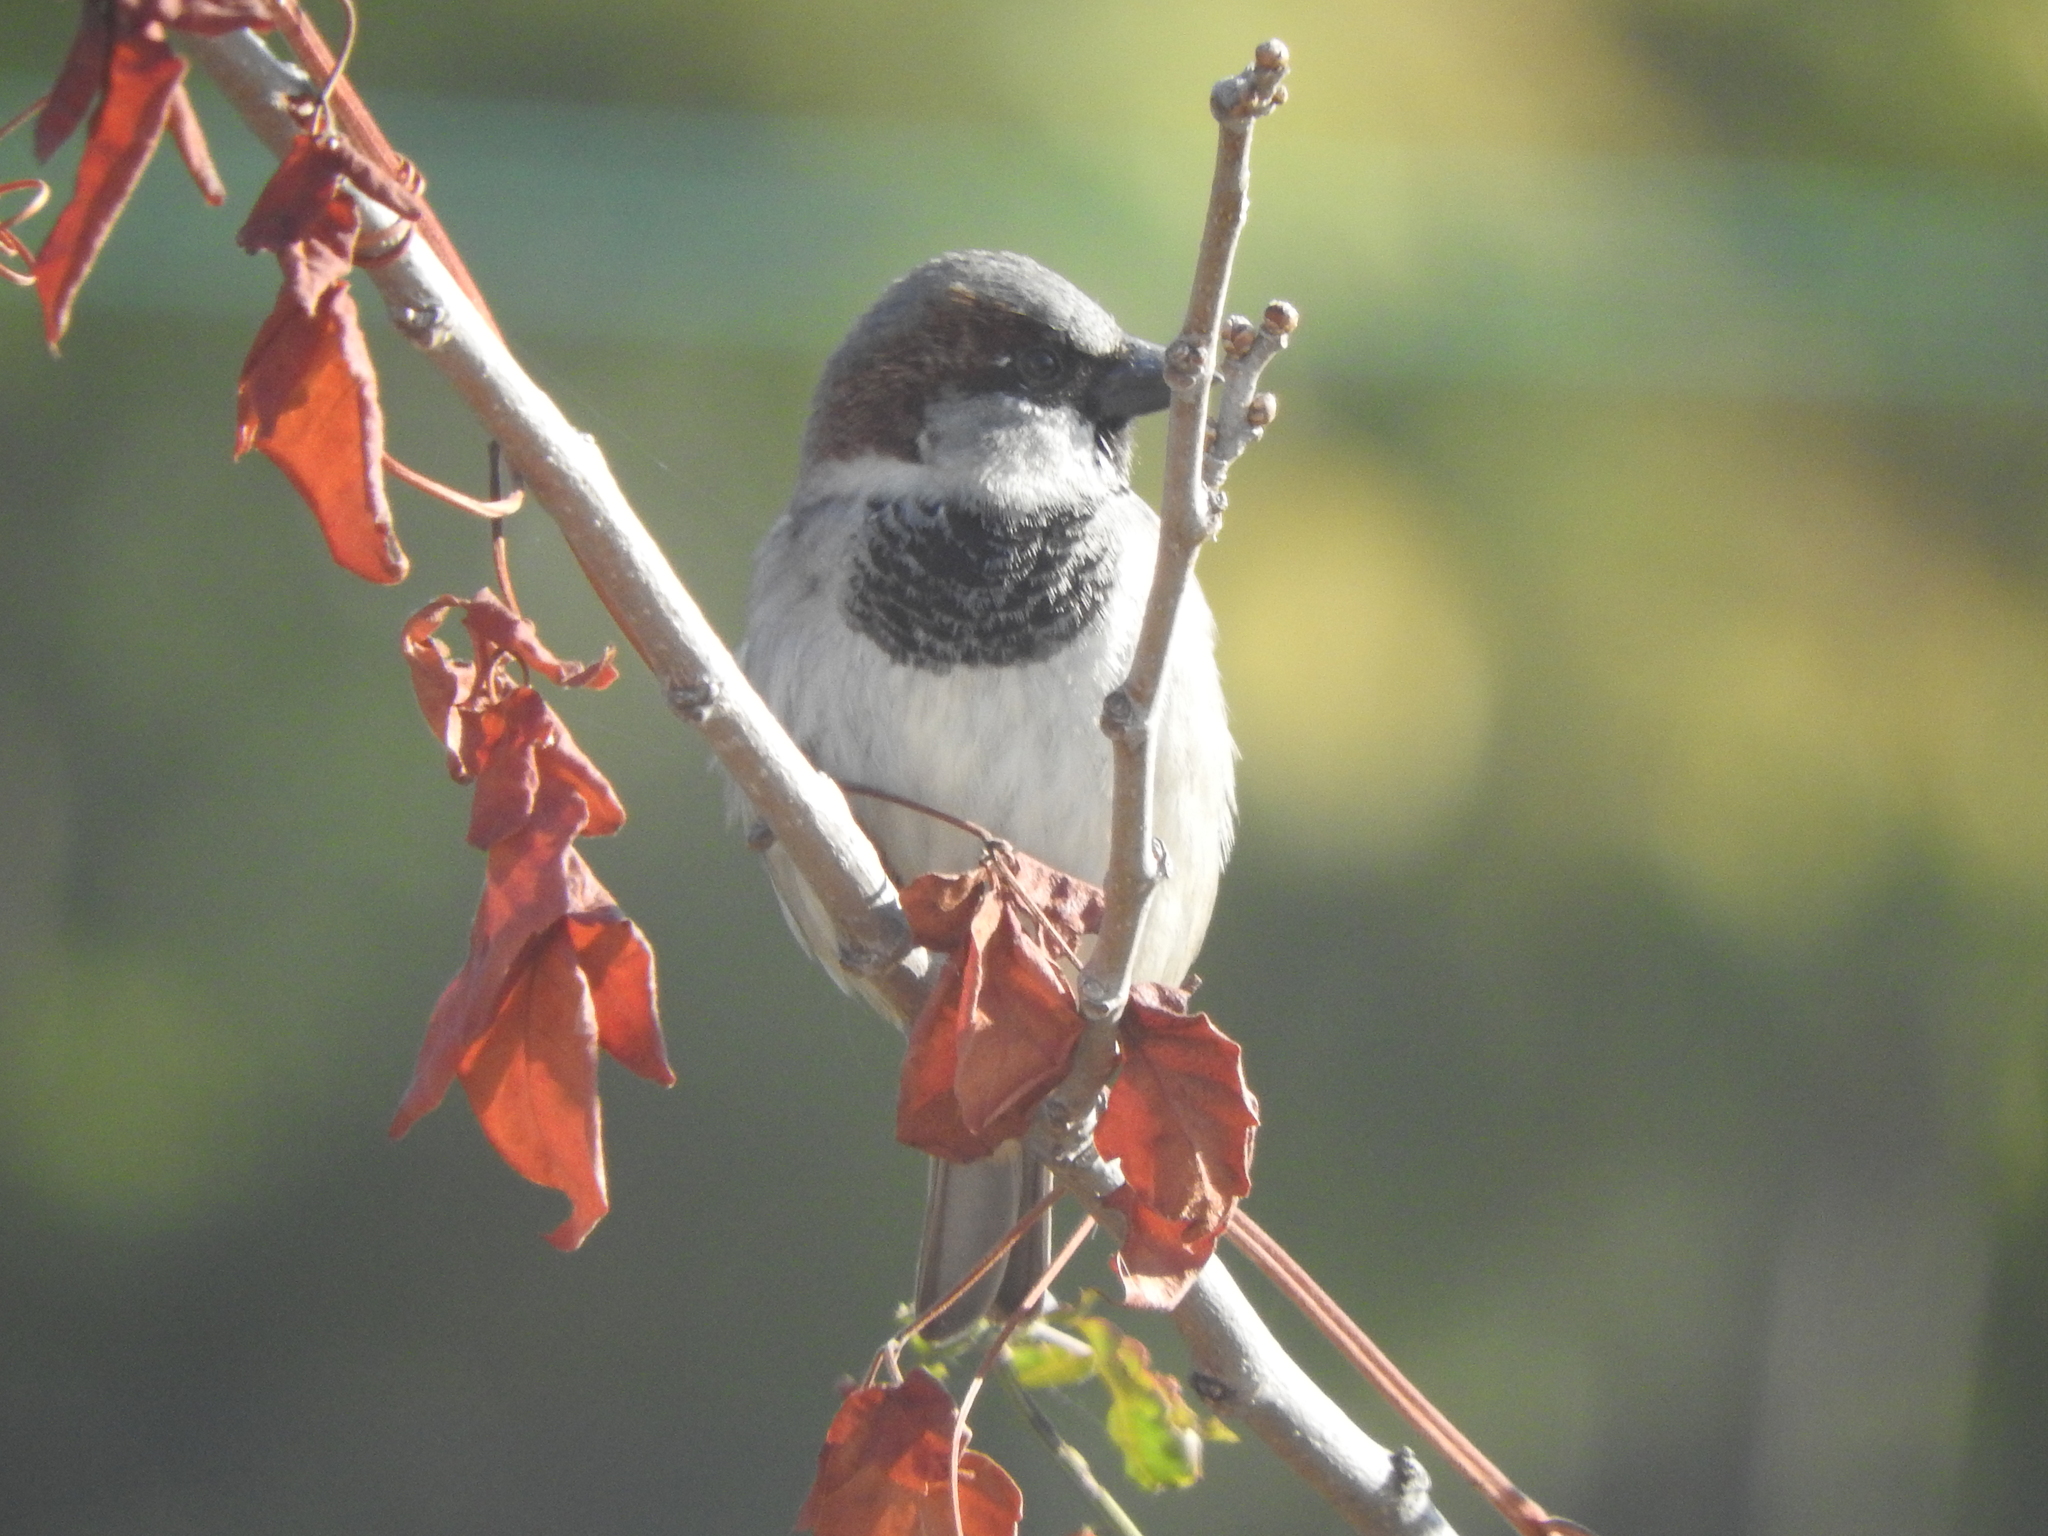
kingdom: Animalia
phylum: Chordata
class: Aves
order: Passeriformes
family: Passeridae
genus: Passer
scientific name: Passer domesticus
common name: House sparrow
